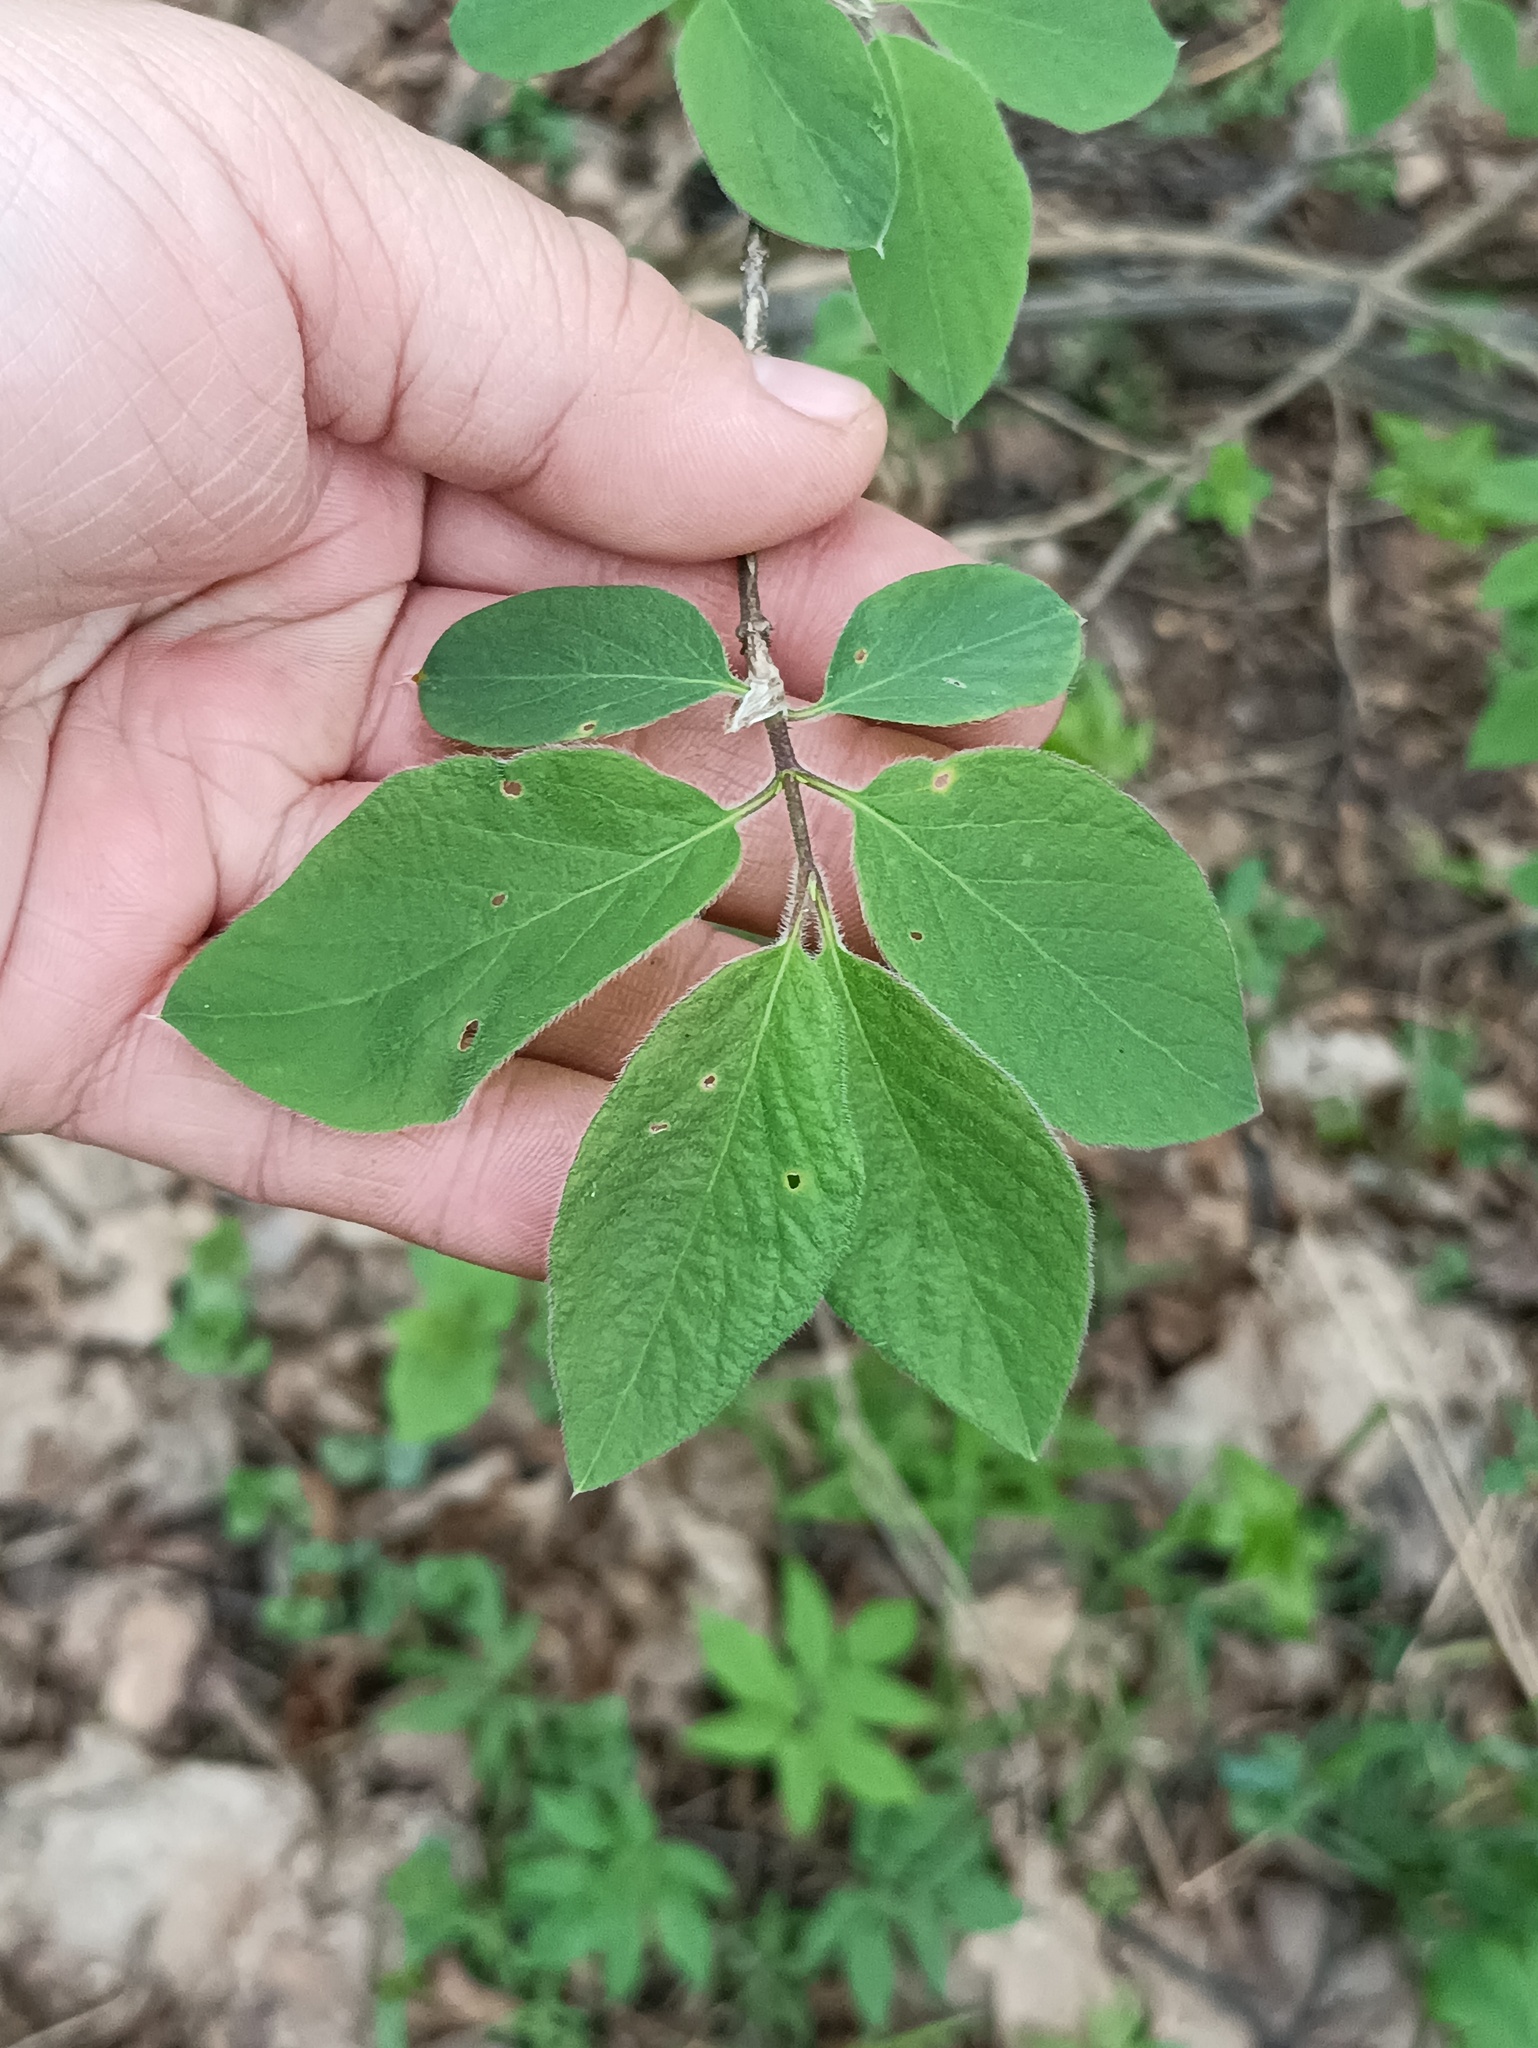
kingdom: Plantae
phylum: Tracheophyta
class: Magnoliopsida
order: Dipsacales
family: Caprifoliaceae
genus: Lonicera
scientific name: Lonicera xylosteum
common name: Fly honeysuckle
